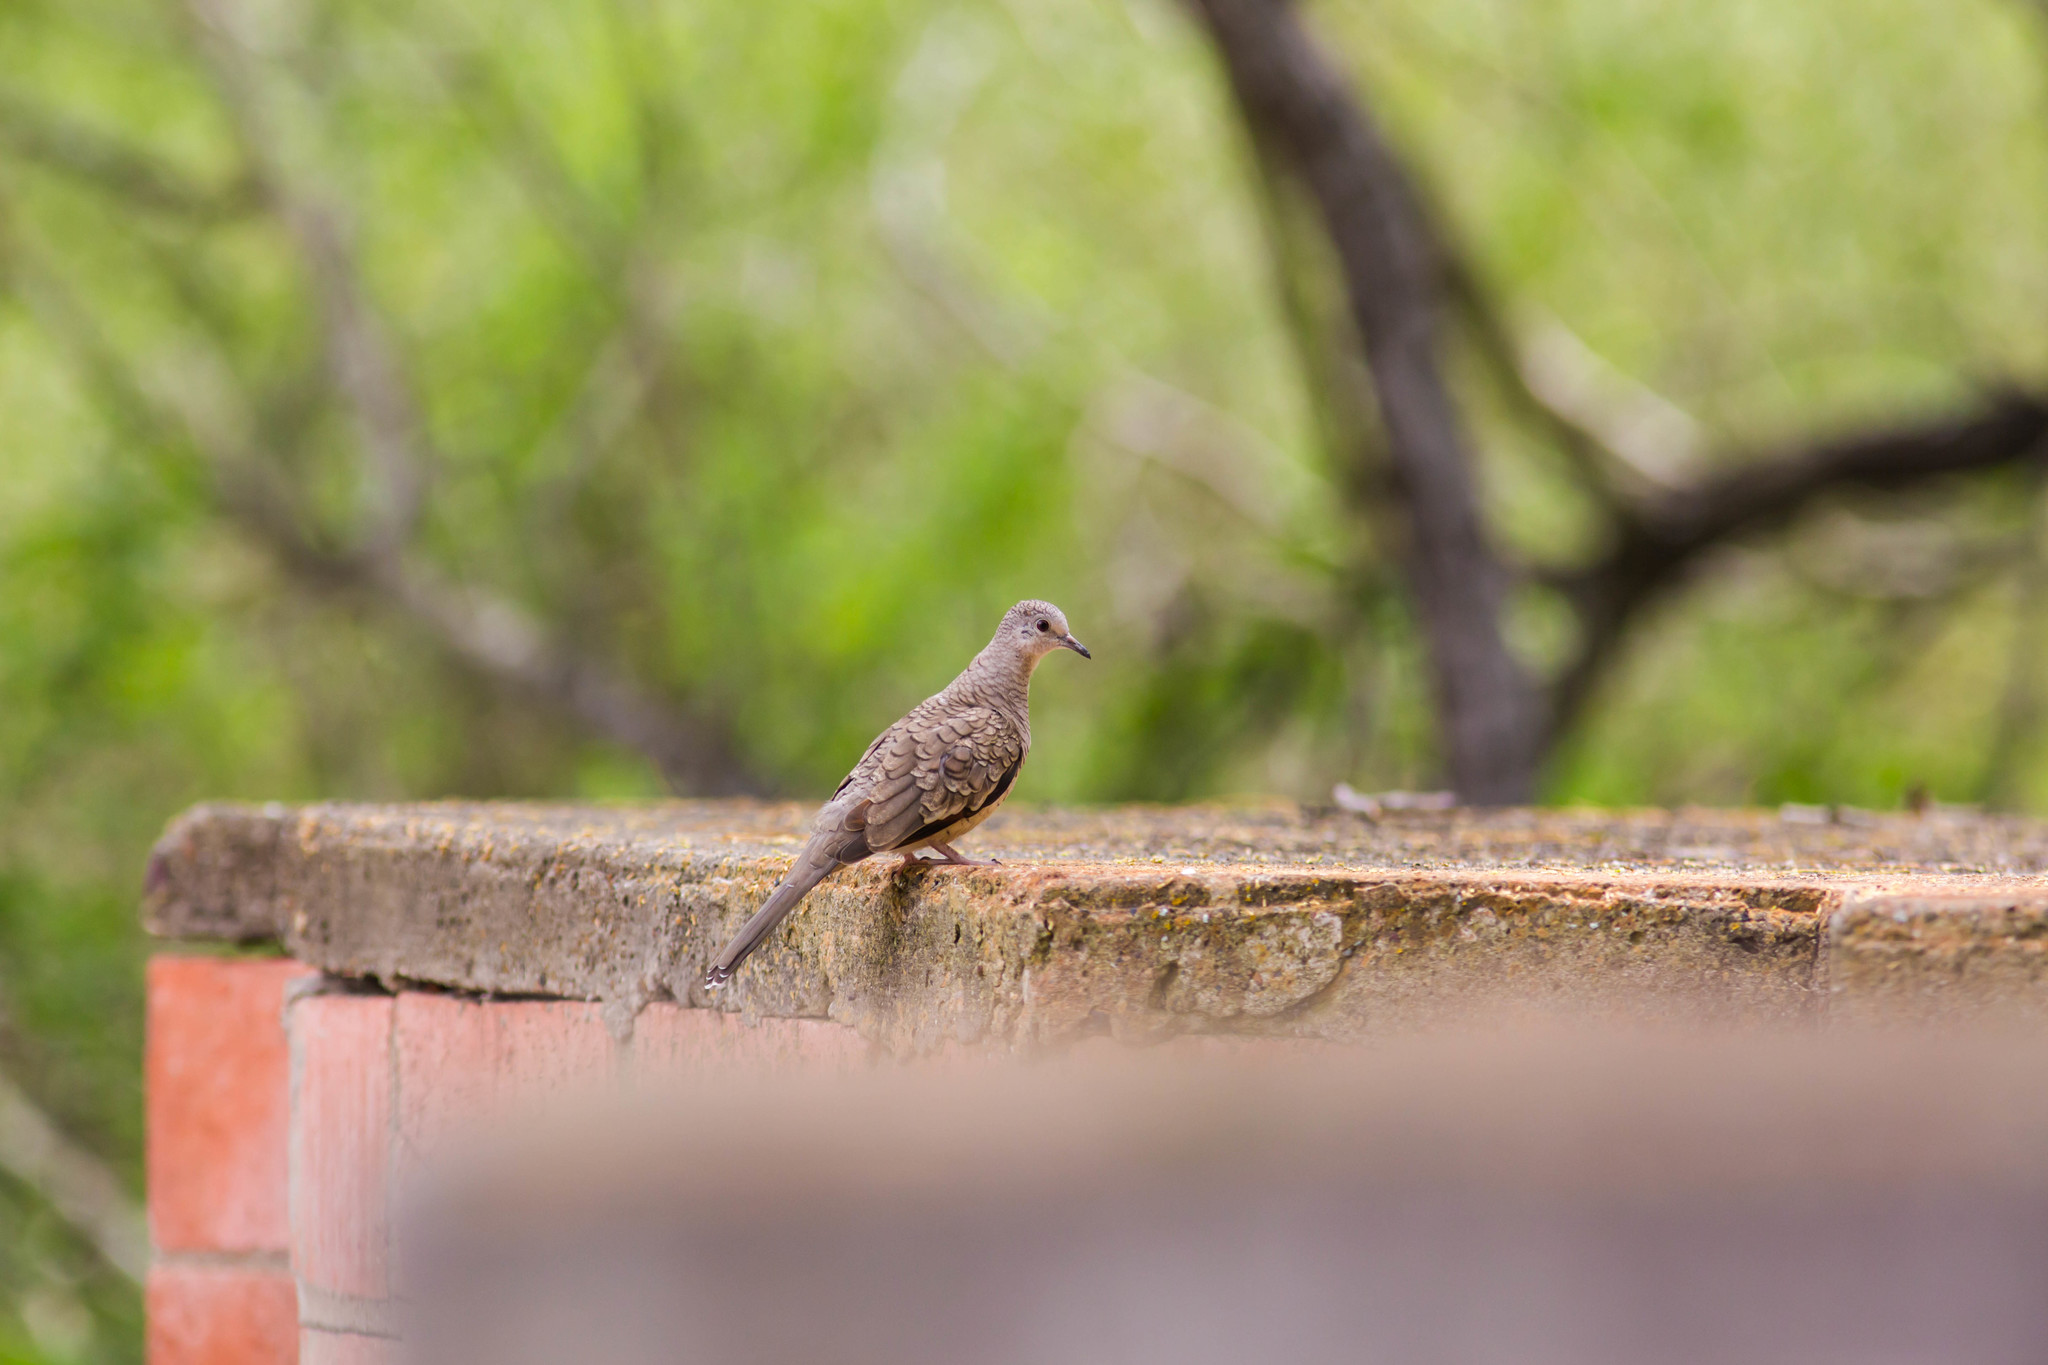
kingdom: Animalia
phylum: Chordata
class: Aves
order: Columbiformes
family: Columbidae
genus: Columbina
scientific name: Columbina inca
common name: Inca dove
